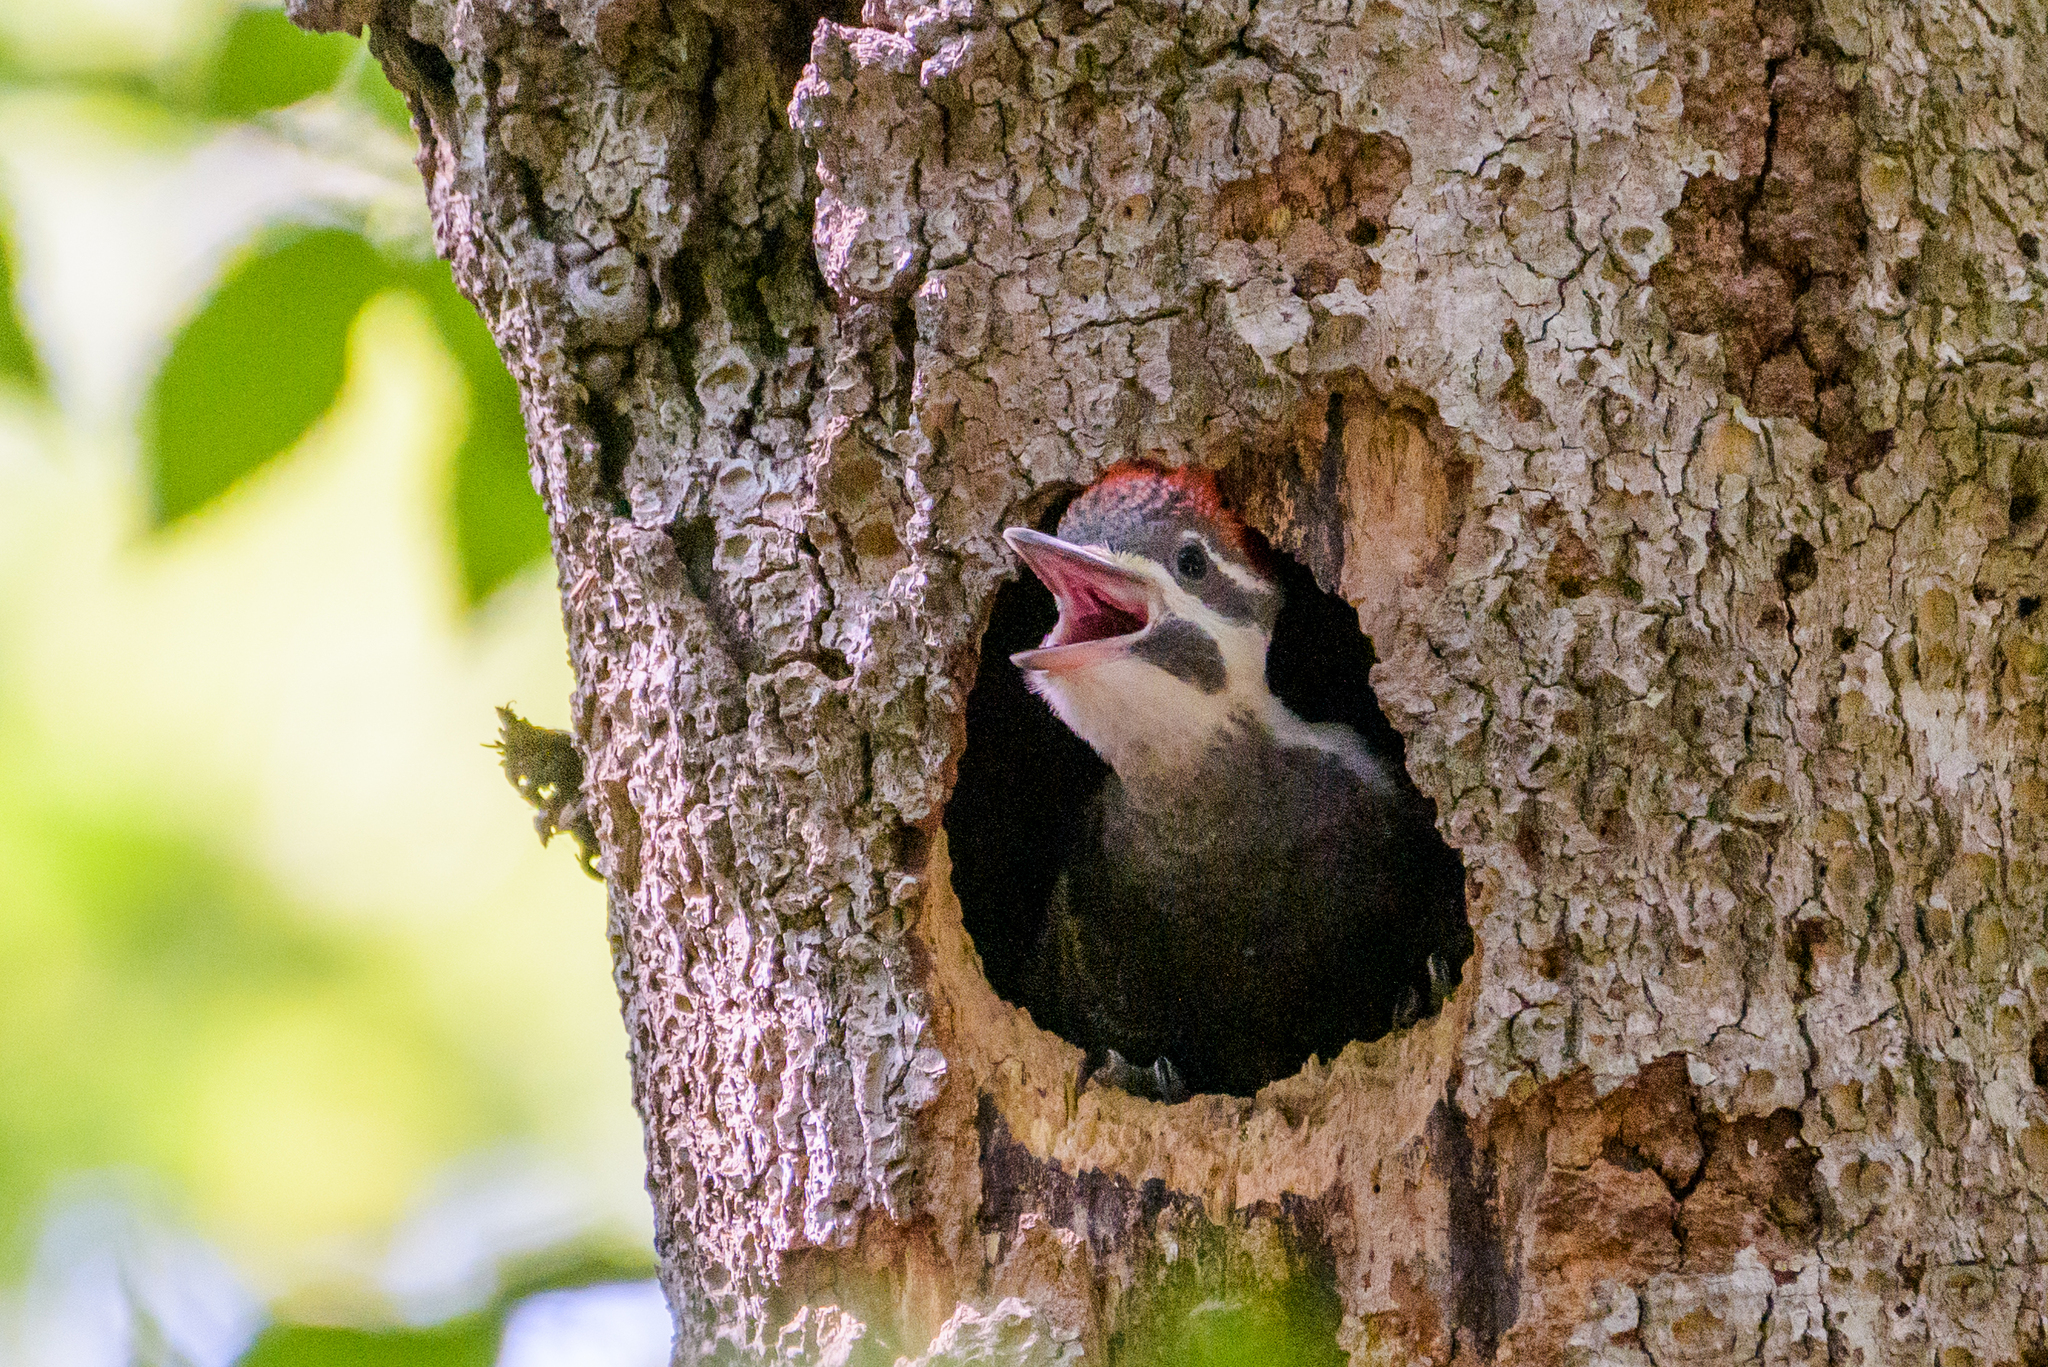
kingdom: Animalia
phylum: Chordata
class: Aves
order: Piciformes
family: Picidae
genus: Dryocopus
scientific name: Dryocopus pileatus
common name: Pileated woodpecker
